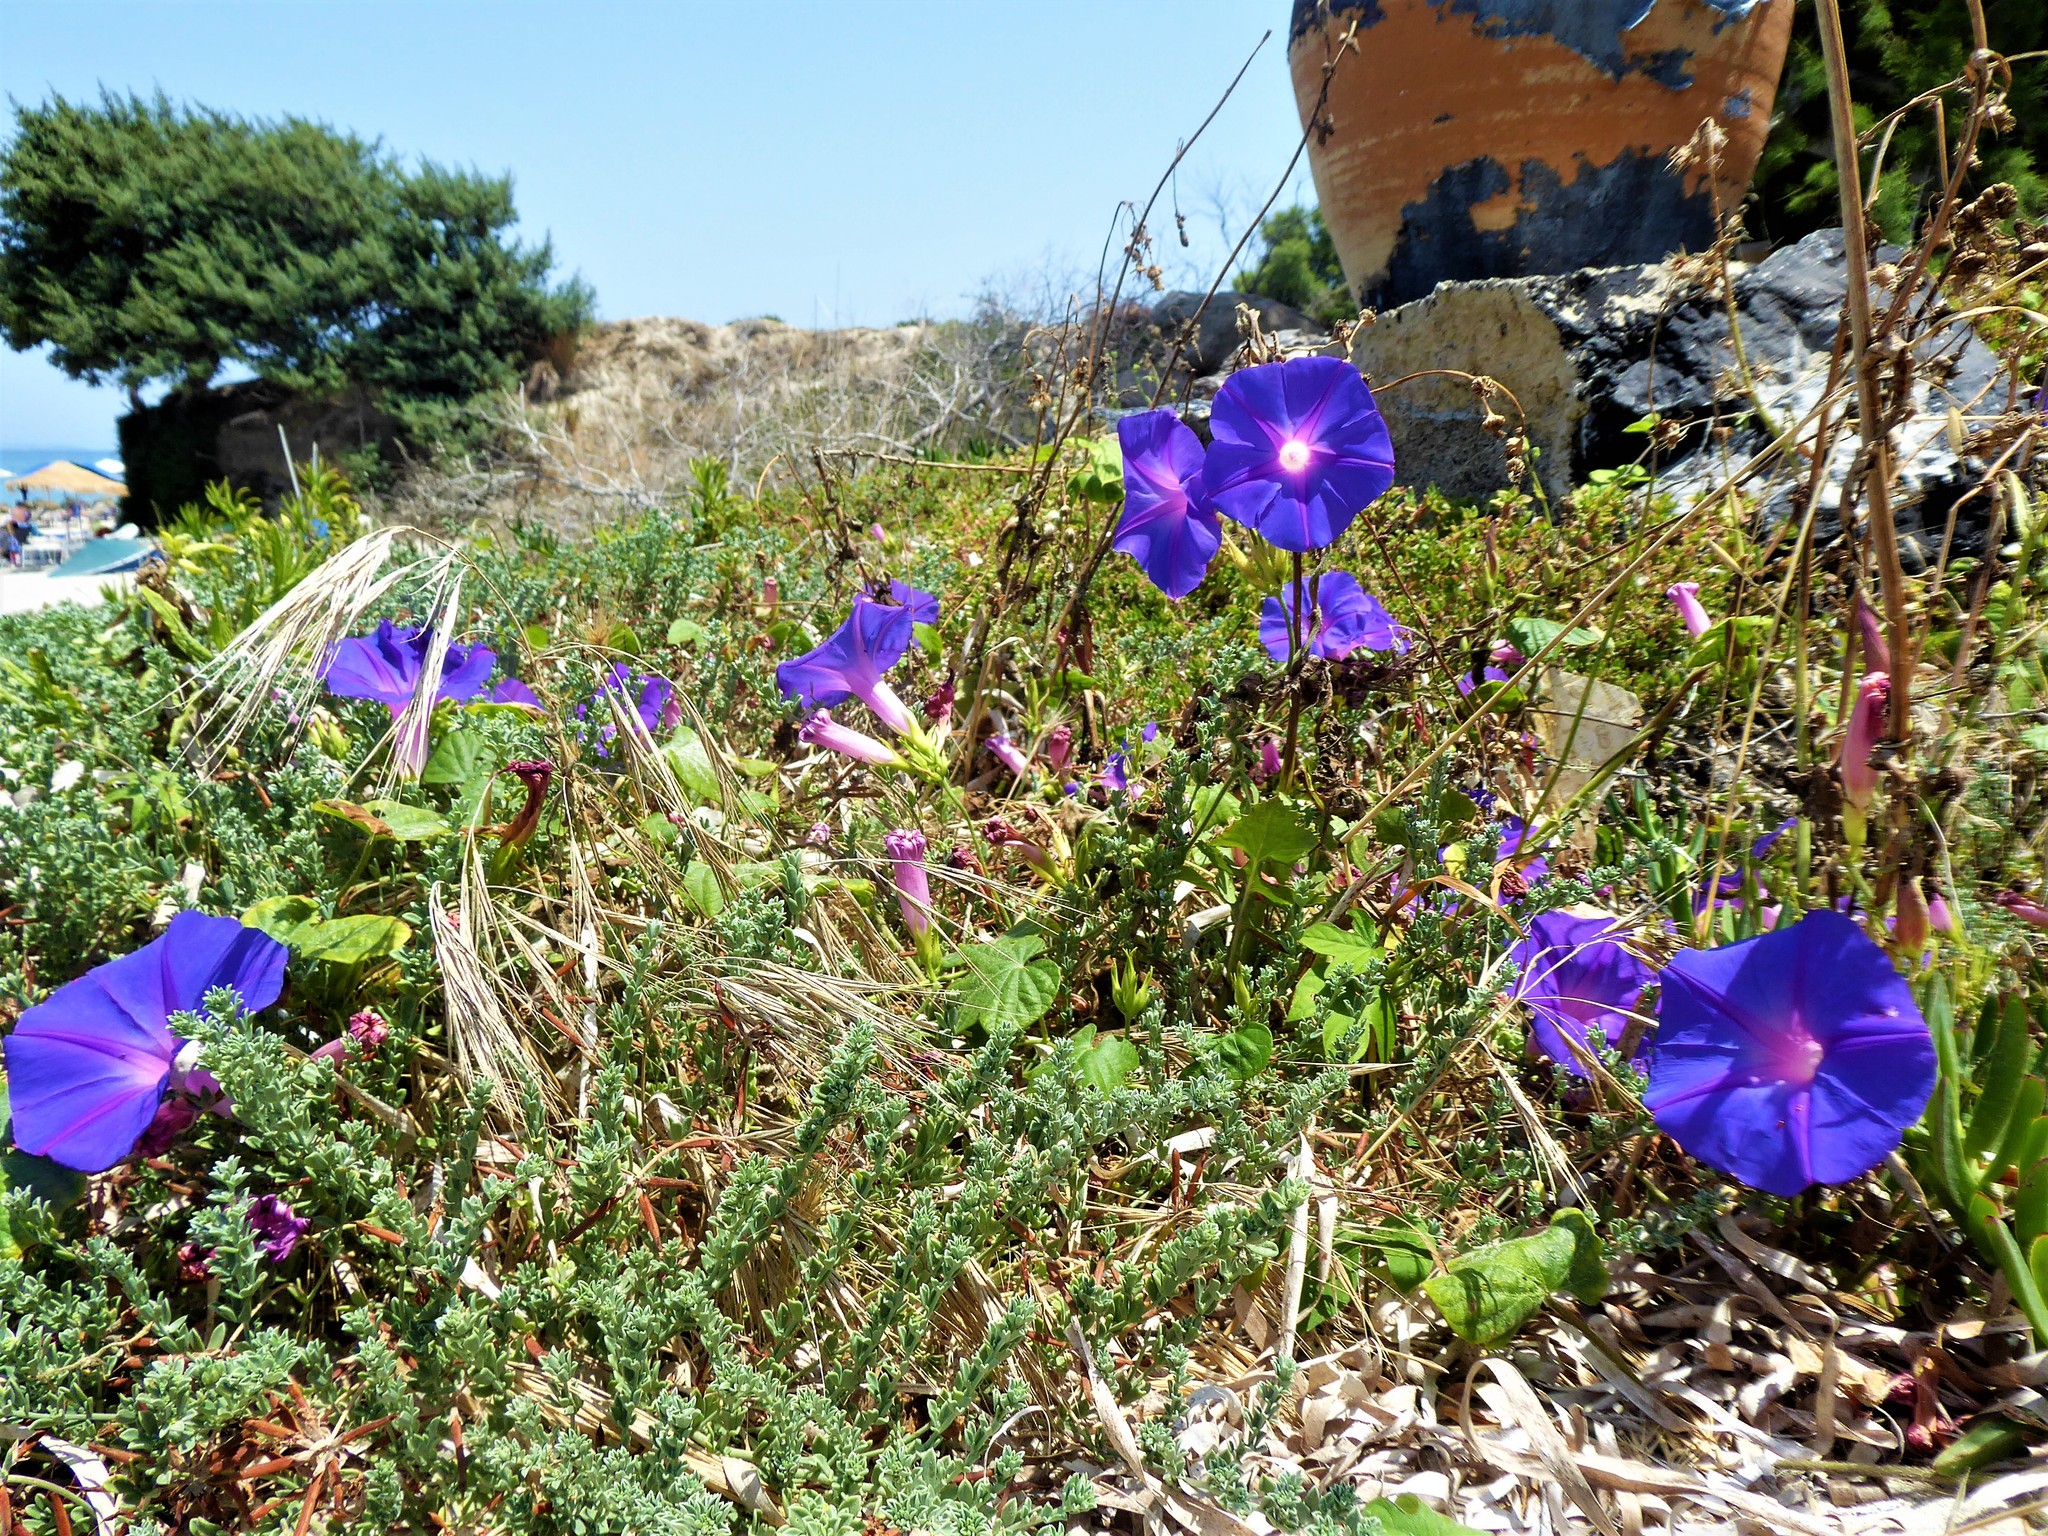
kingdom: Plantae
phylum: Tracheophyta
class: Magnoliopsida
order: Solanales
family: Convolvulaceae
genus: Ipomoea
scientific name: Ipomoea indica
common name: Blue dawnflower
